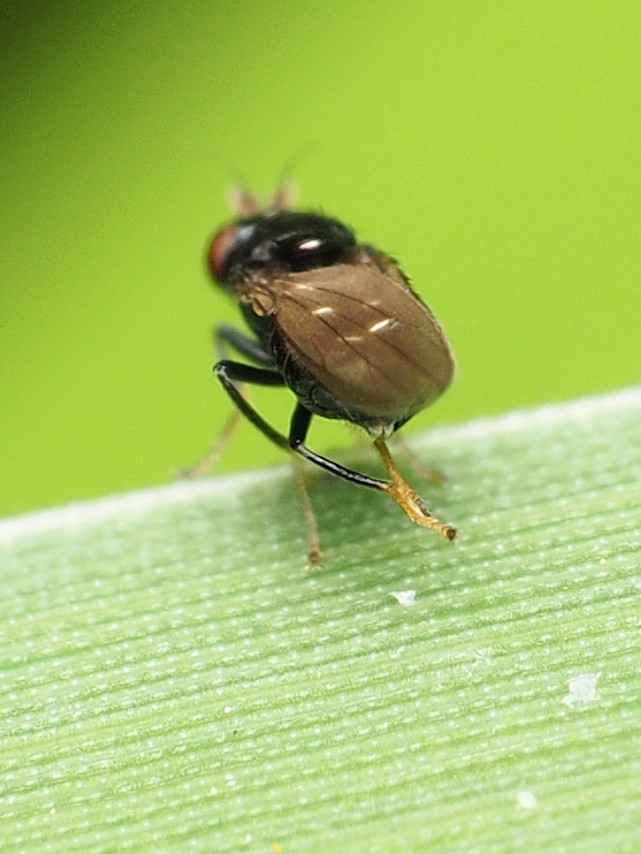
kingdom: Animalia
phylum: Arthropoda
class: Insecta
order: Diptera
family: Ephydridae
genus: Hyadina
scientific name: Hyadina albovenosa
